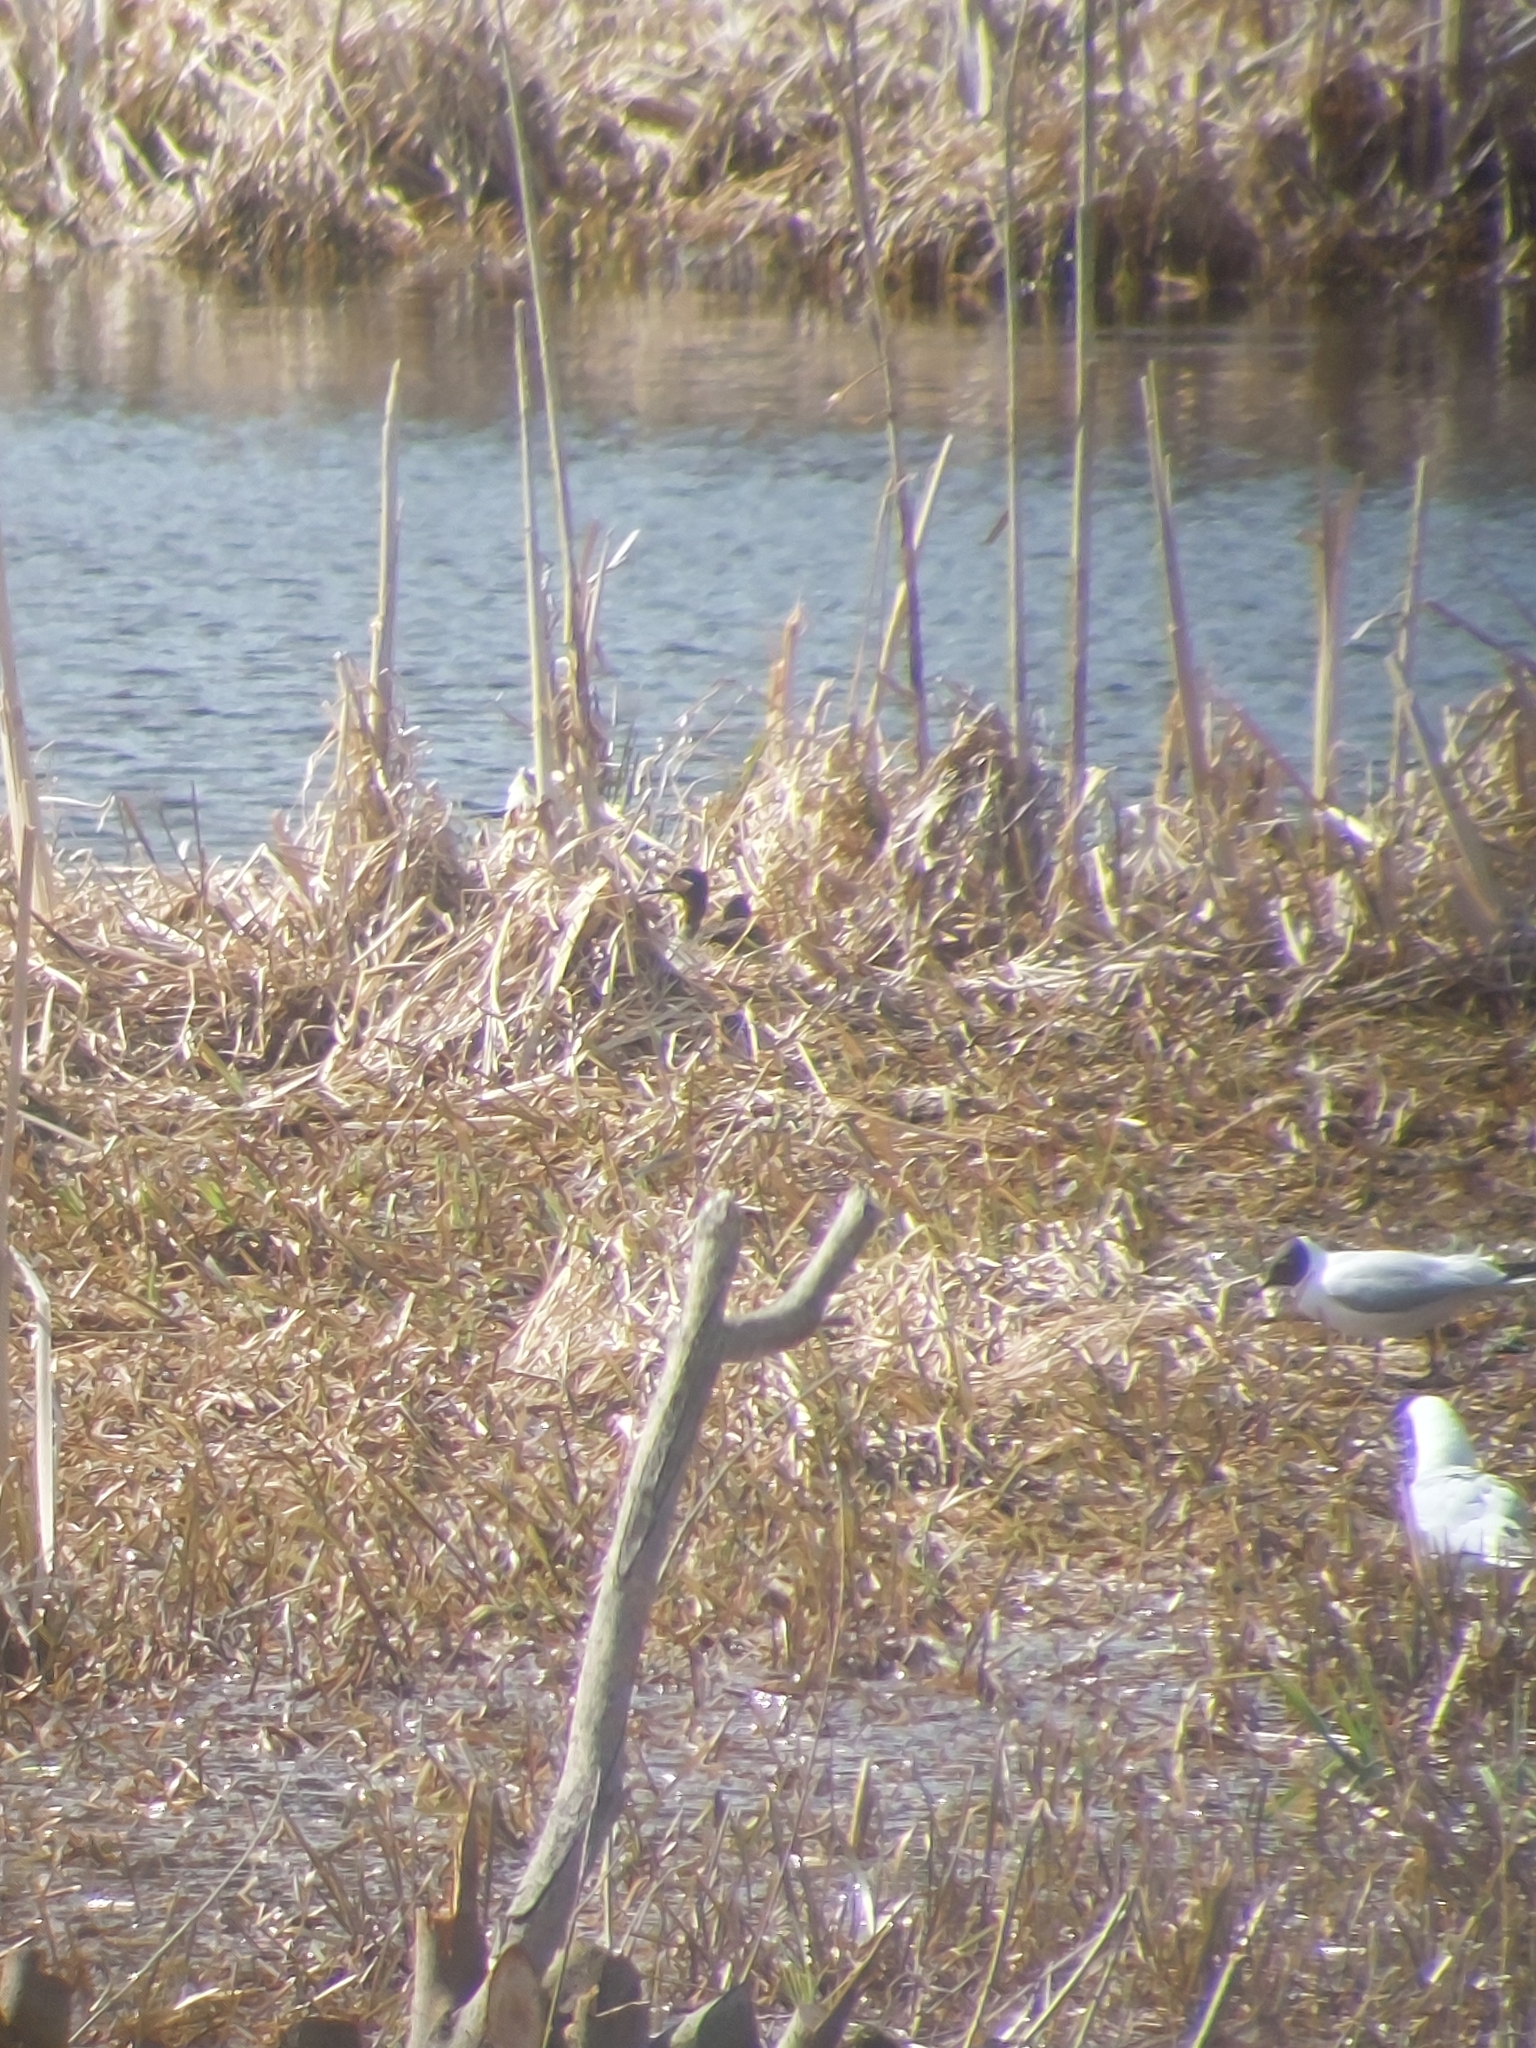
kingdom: Animalia
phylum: Chordata
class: Aves
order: Anseriformes
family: Anatidae
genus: Anas
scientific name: Anas crecca
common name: Eurasian teal
